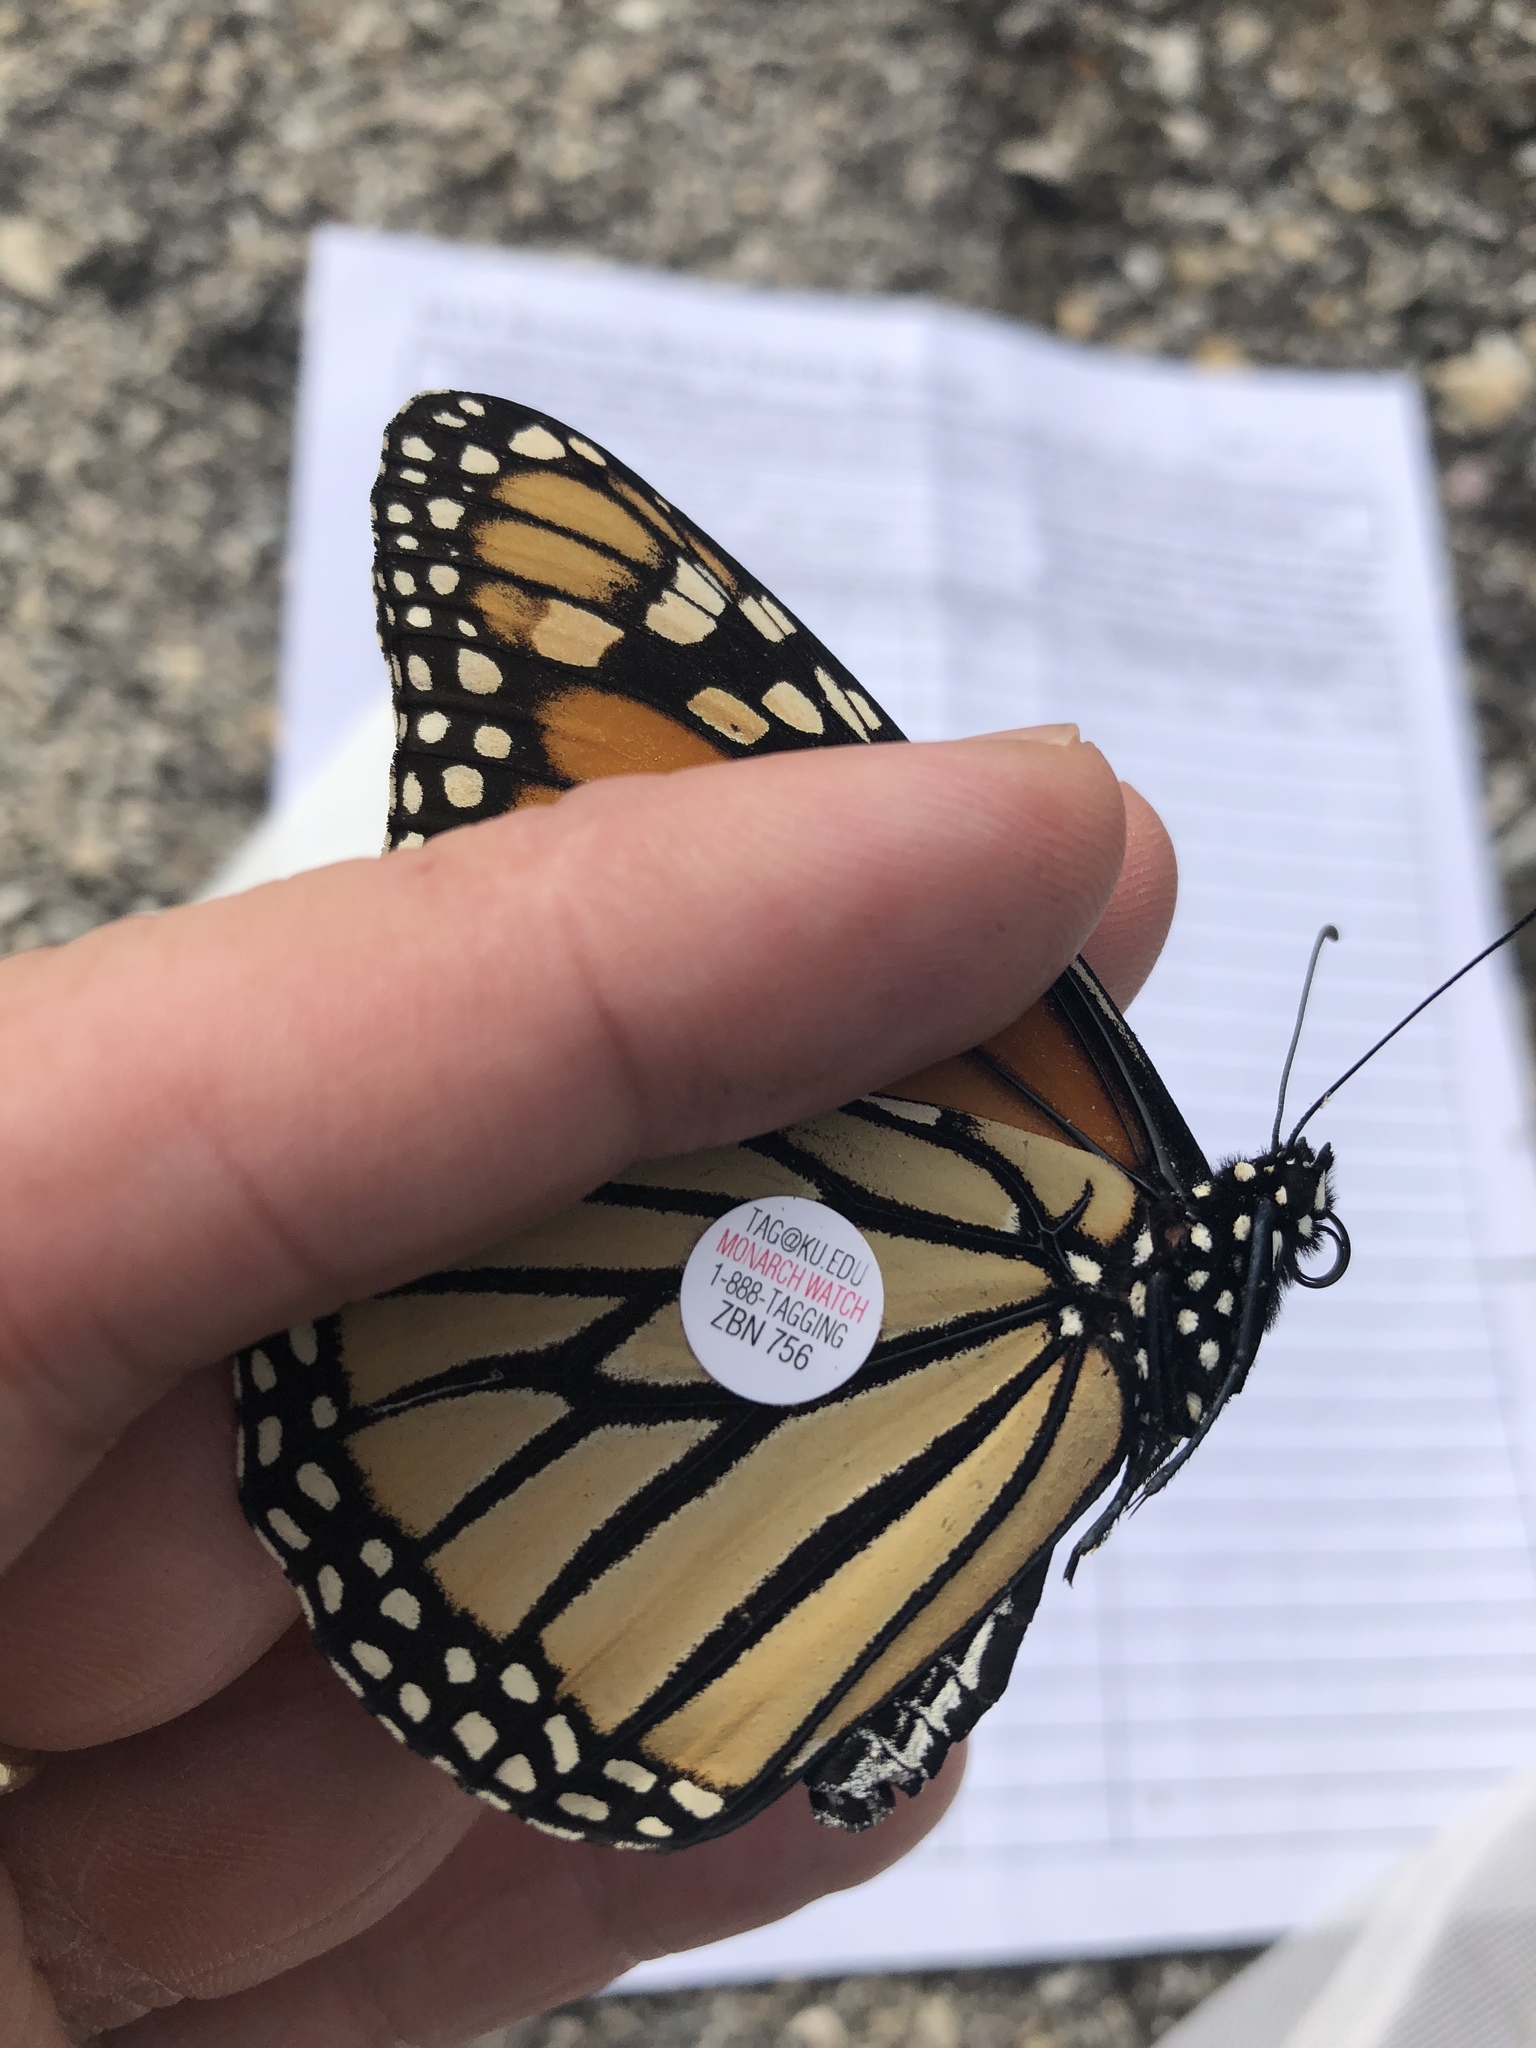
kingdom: Animalia
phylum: Arthropoda
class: Insecta
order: Lepidoptera
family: Nymphalidae
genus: Danaus
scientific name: Danaus plexippus
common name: Monarch
